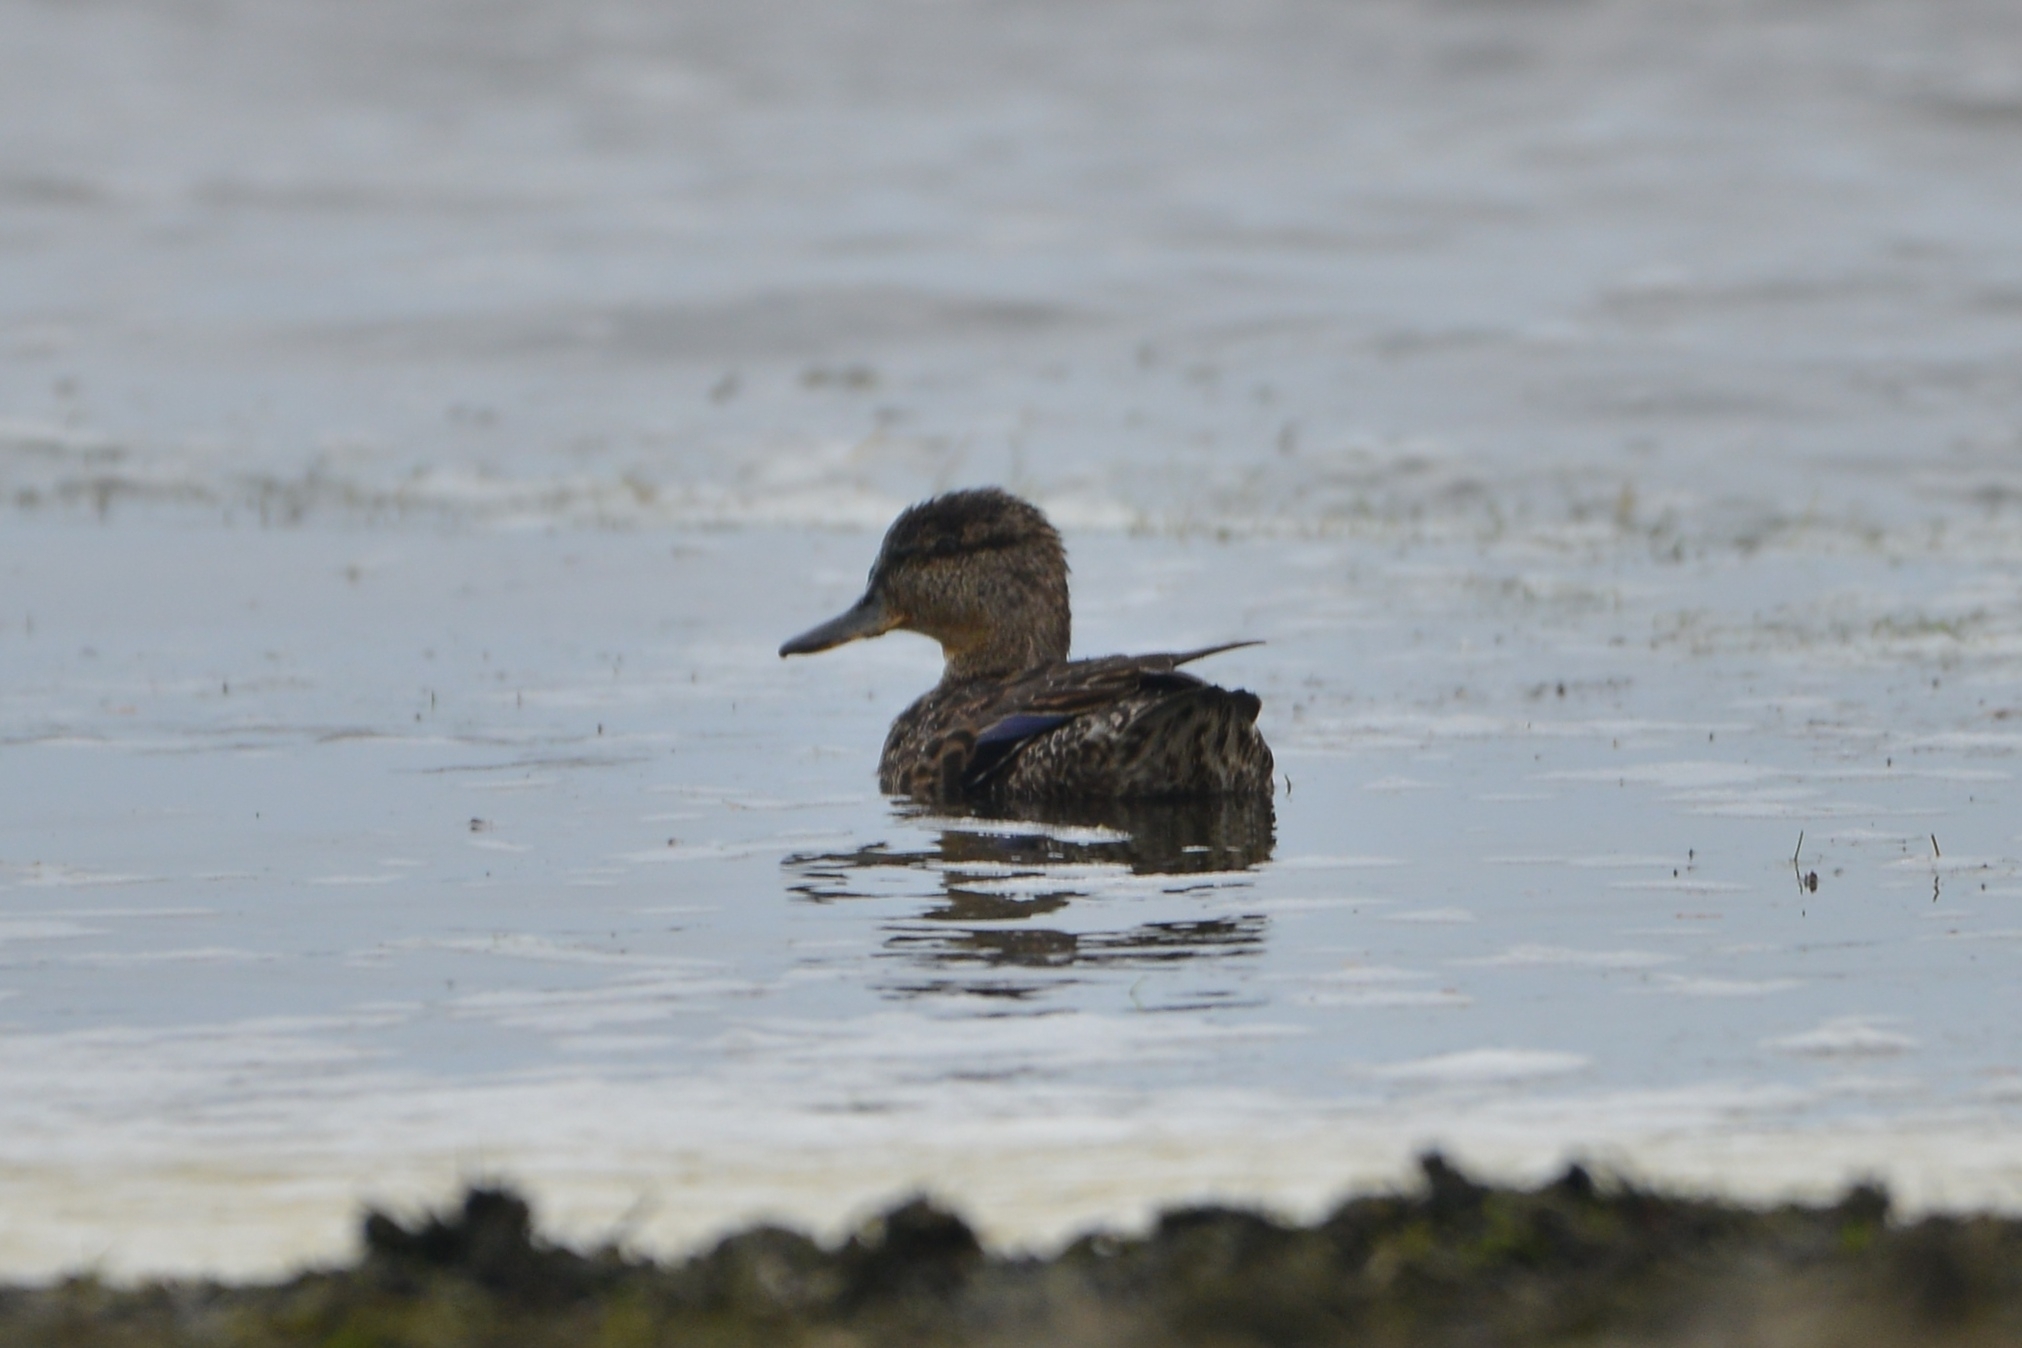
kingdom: Animalia
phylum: Chordata
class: Aves
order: Anseriformes
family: Anatidae
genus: Anas
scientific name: Anas crecca
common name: Eurasian teal
